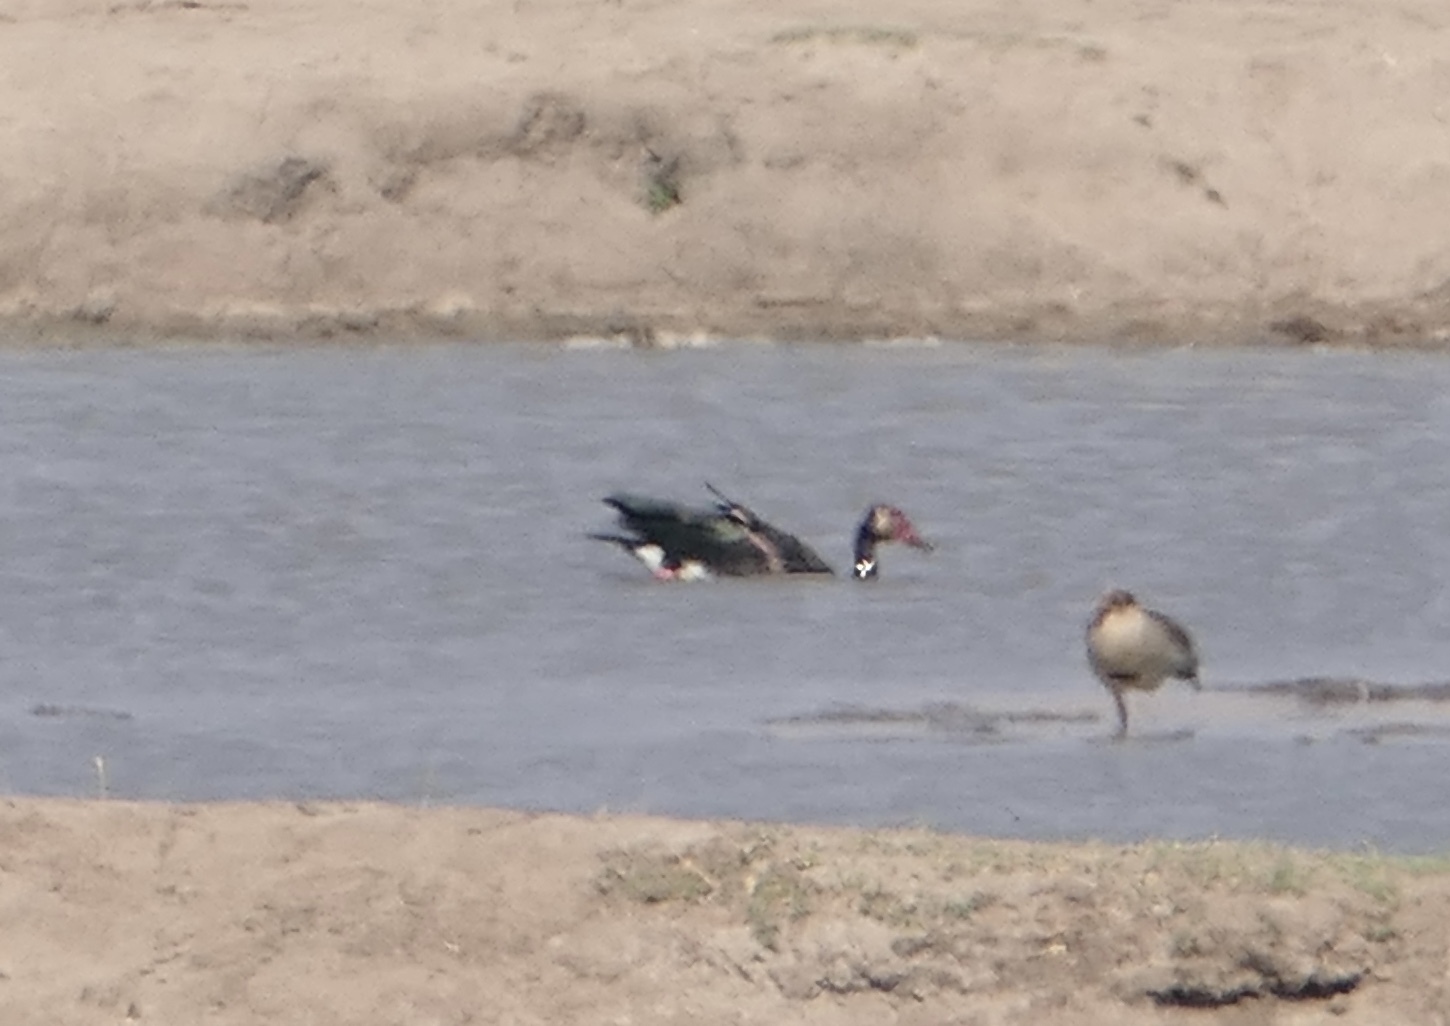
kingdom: Animalia
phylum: Chordata
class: Aves
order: Anseriformes
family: Anatidae
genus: Plectropterus
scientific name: Plectropterus gambensis
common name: Spur-winged goose
